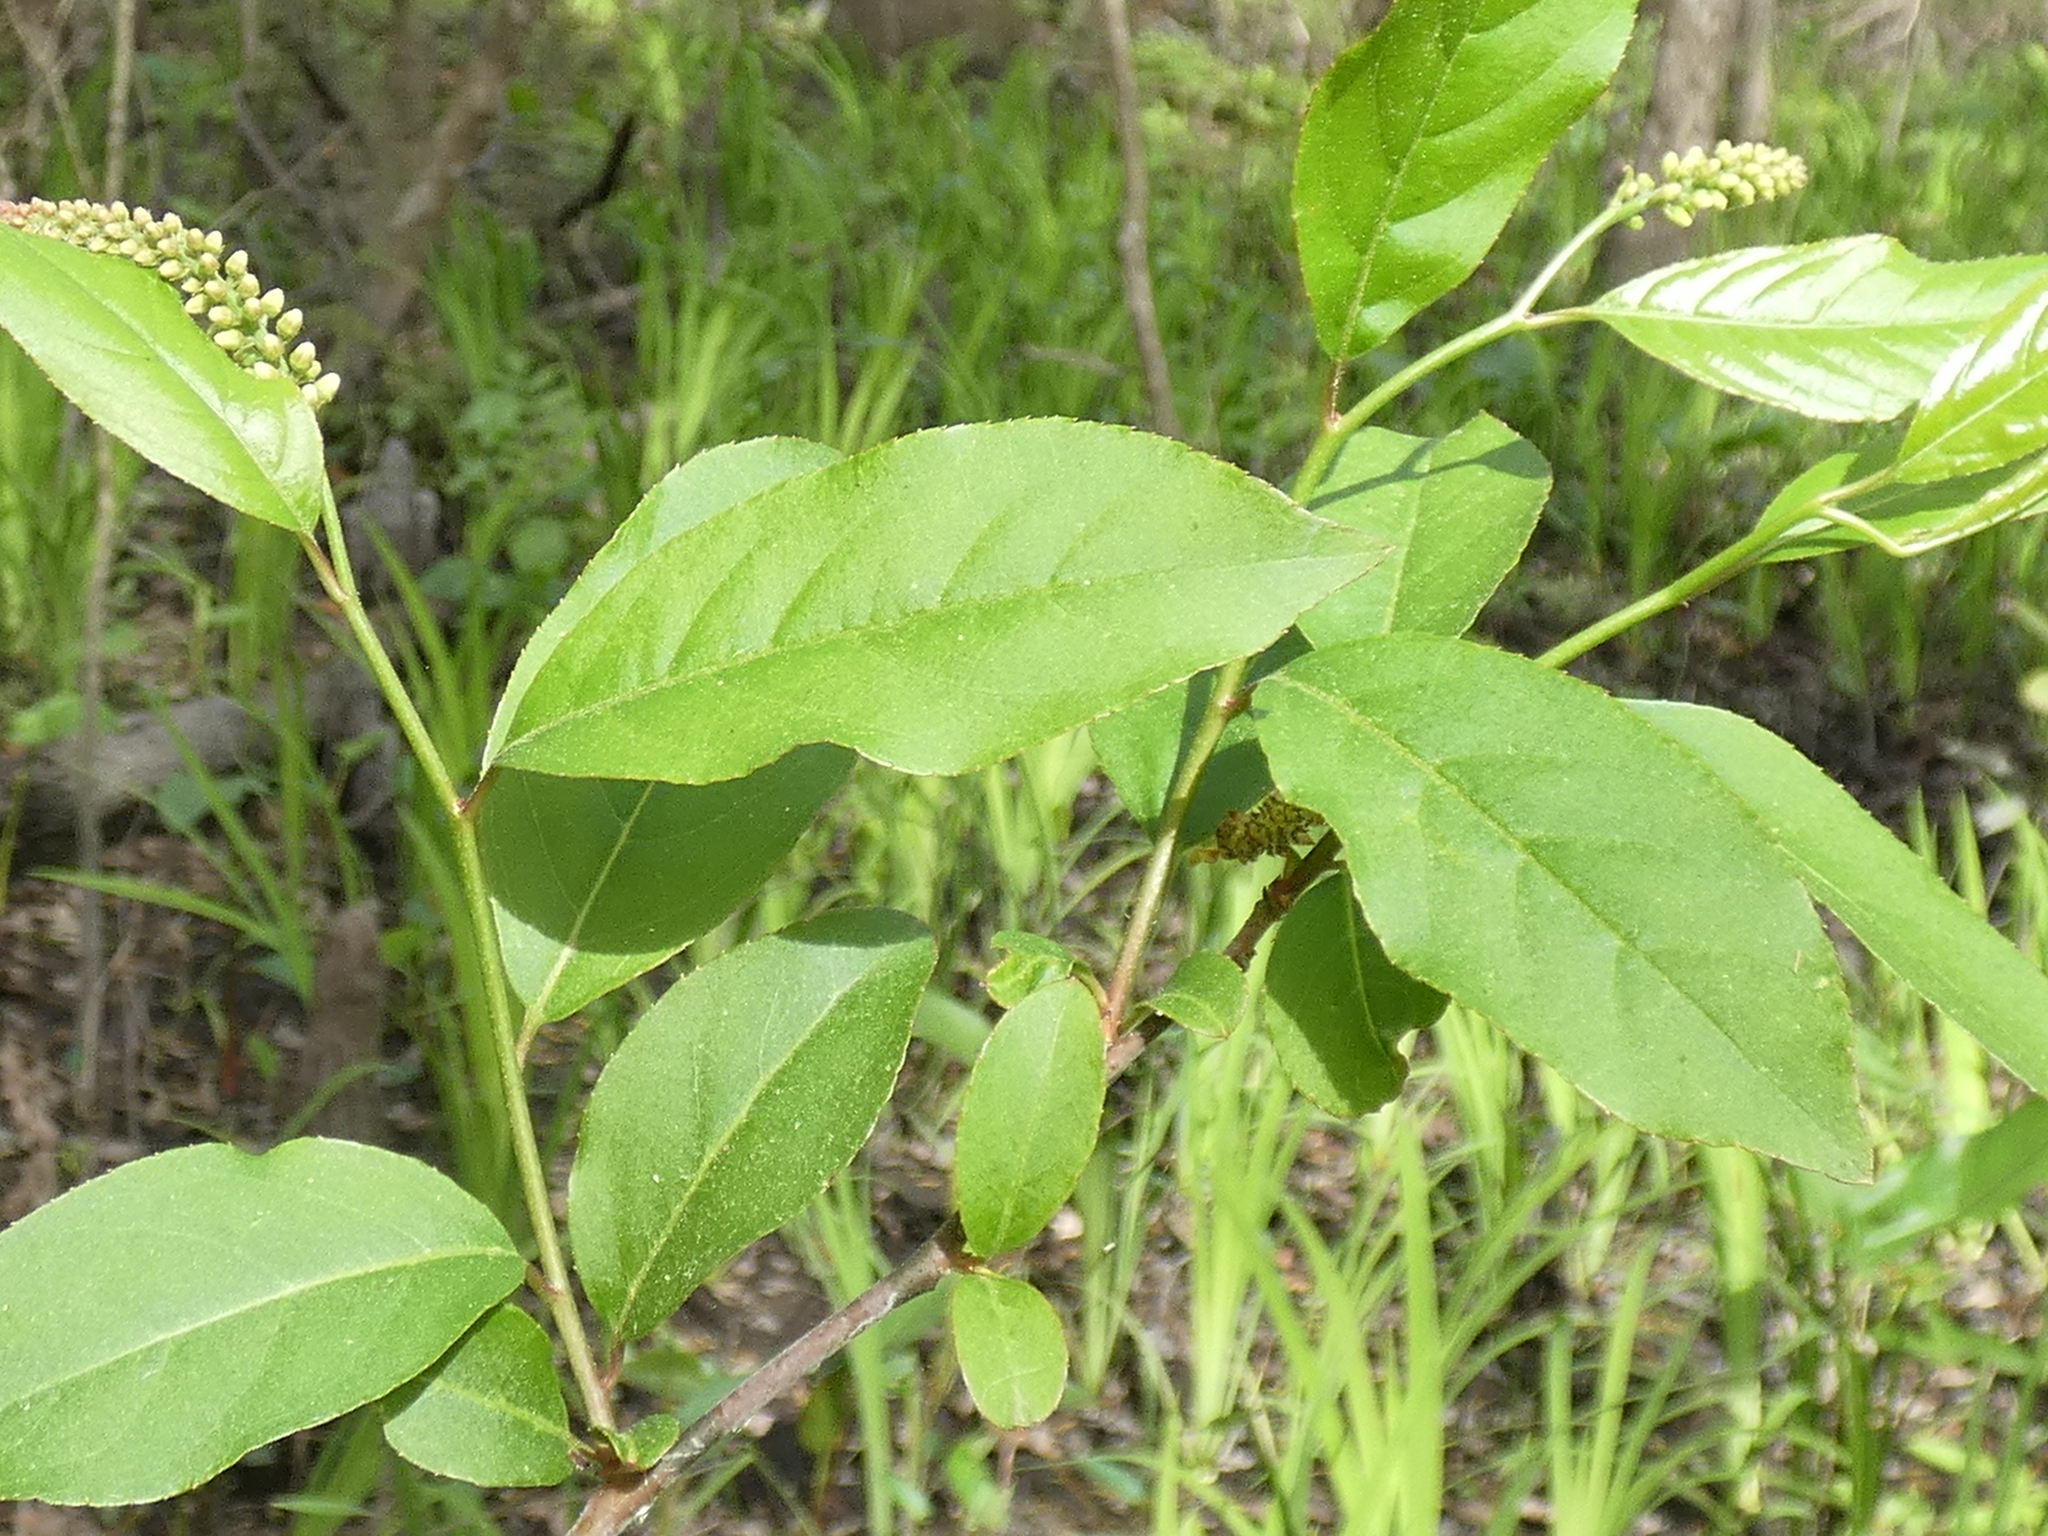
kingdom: Plantae
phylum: Tracheophyta
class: Magnoliopsida
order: Saxifragales
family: Iteaceae
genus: Itea
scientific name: Itea virginica
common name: Sweetspire
